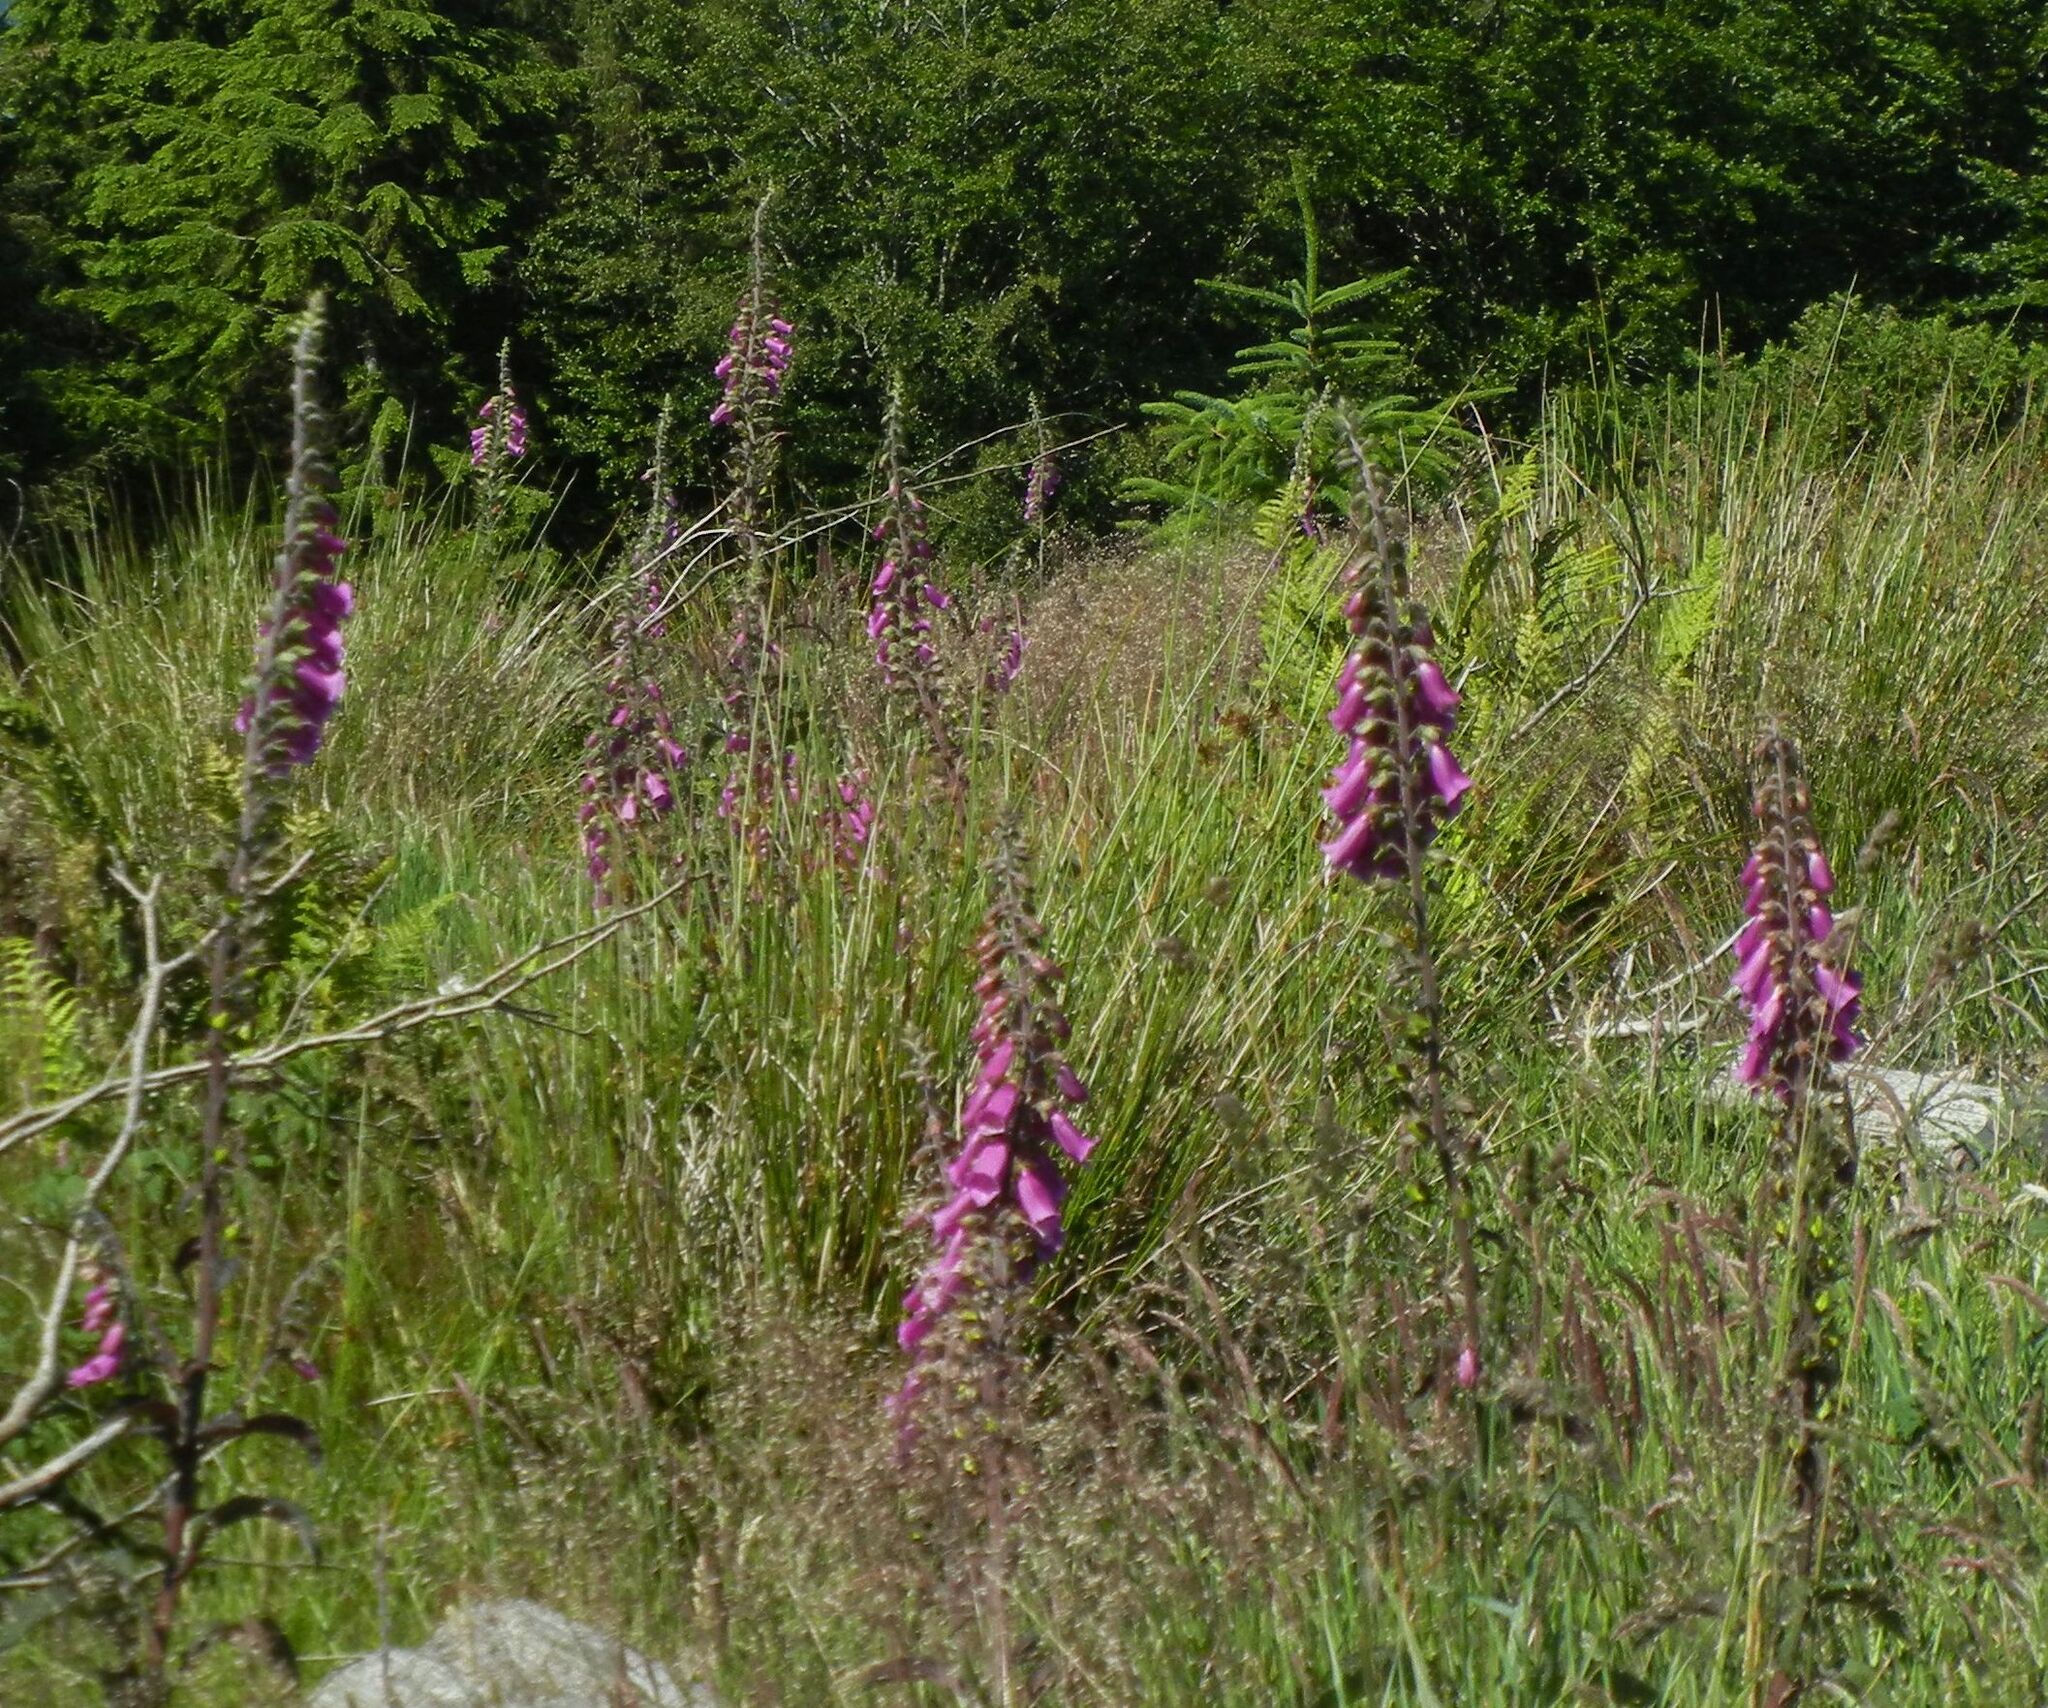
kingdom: Plantae
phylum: Tracheophyta
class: Magnoliopsida
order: Lamiales
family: Plantaginaceae
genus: Digitalis
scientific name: Digitalis purpurea
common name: Foxglove
